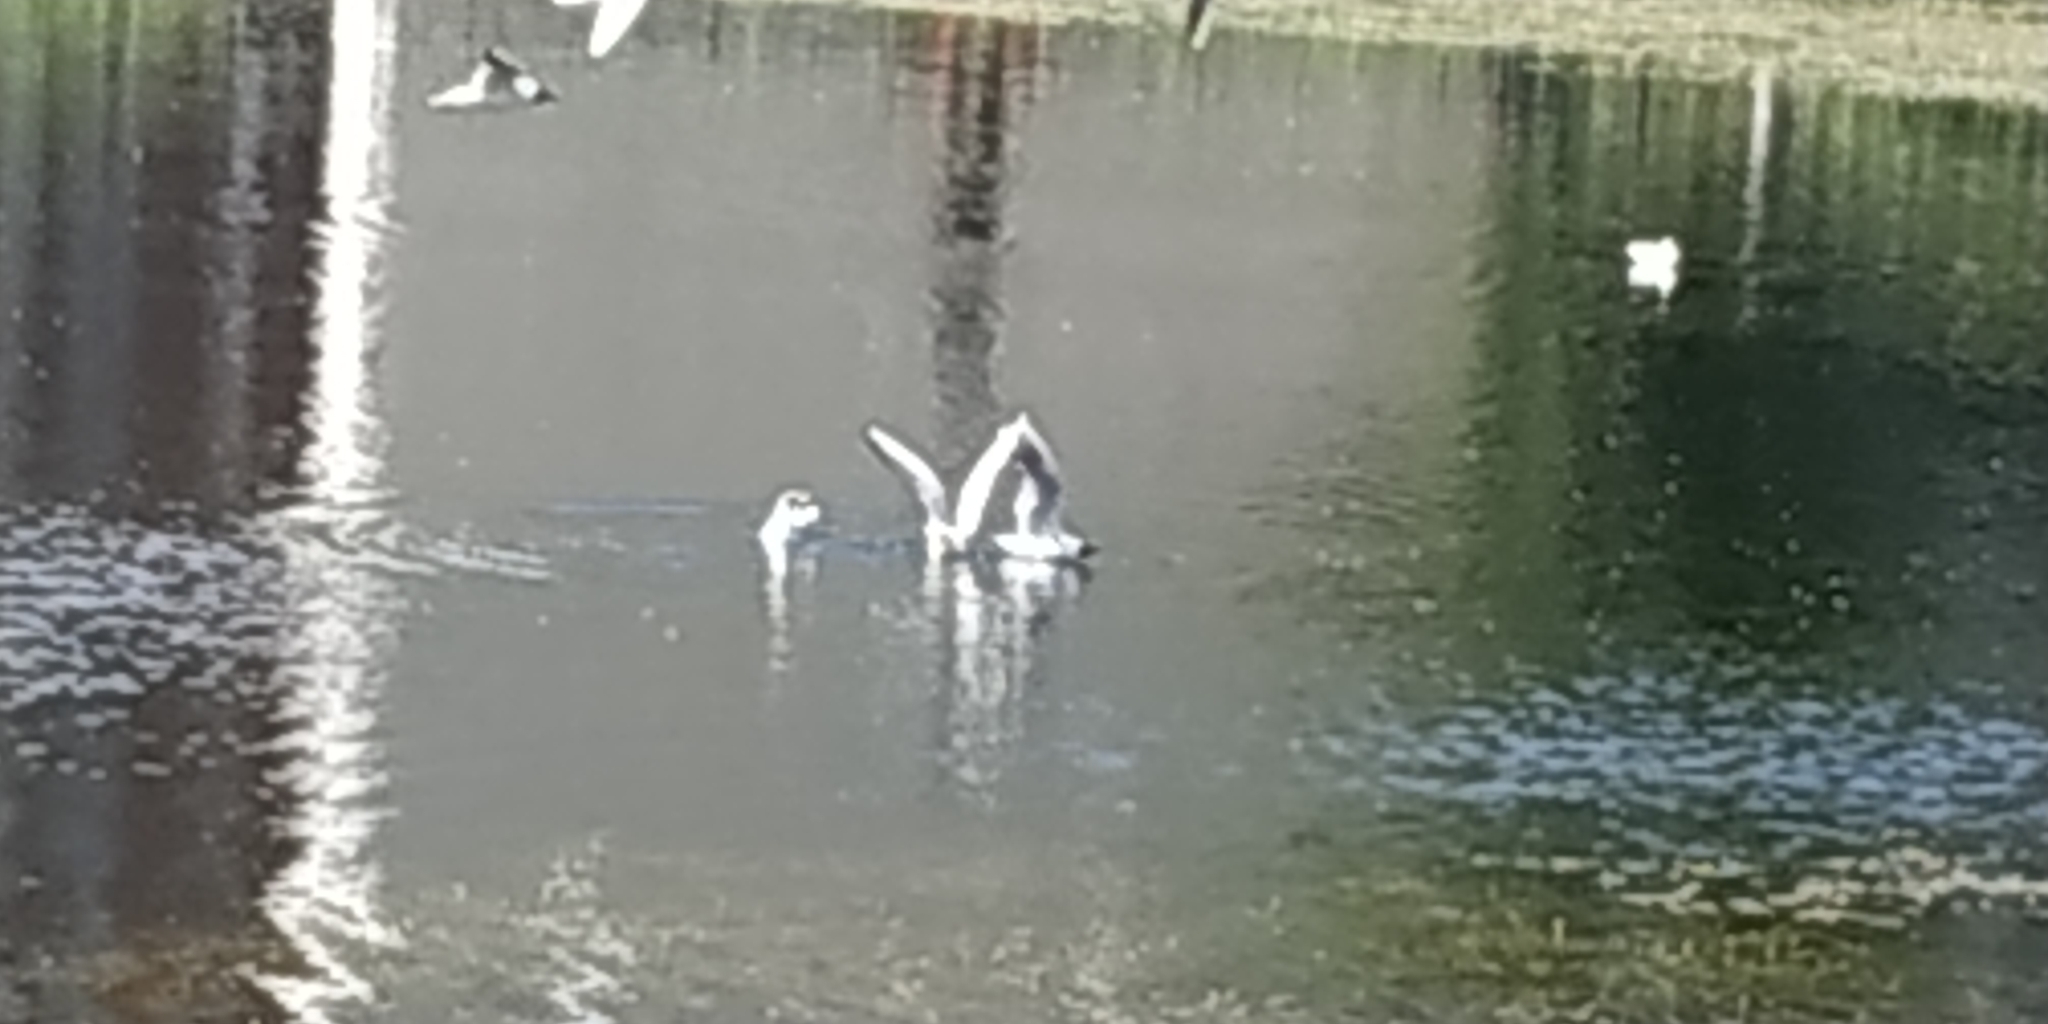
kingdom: Animalia
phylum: Chordata
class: Aves
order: Charadriiformes
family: Laridae
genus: Chroicocephalus
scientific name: Chroicocephalus ridibundus
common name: Black-headed gull
